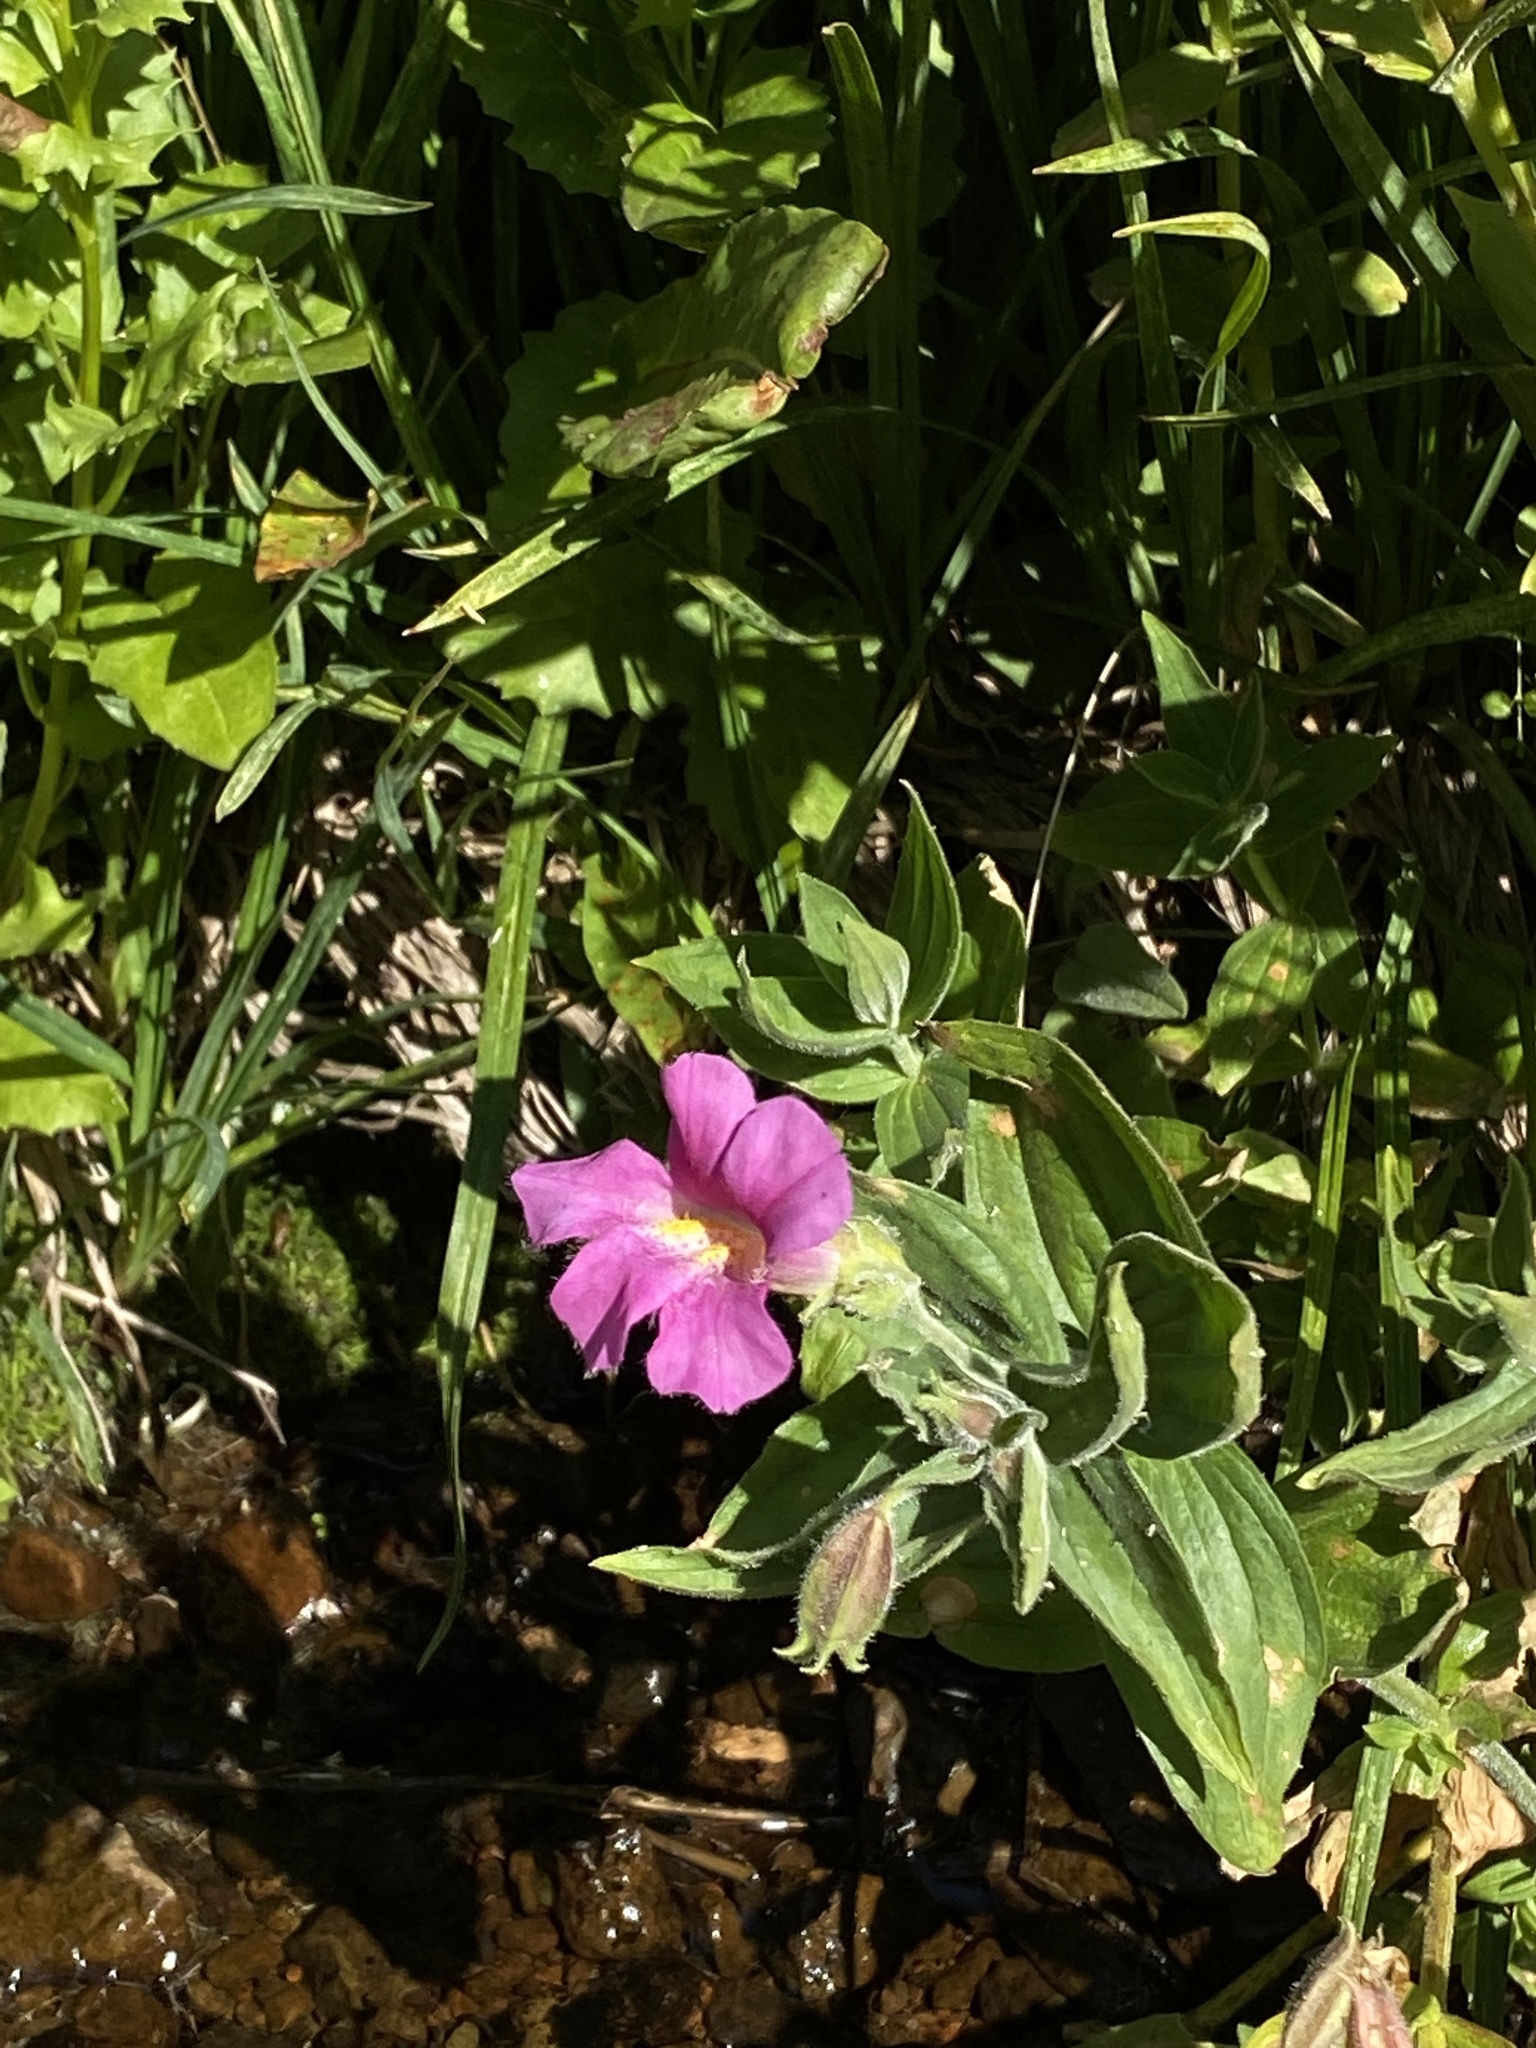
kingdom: Plantae
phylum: Tracheophyta
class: Magnoliopsida
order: Lamiales
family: Phrymaceae
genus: Erythranthe
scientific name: Erythranthe lewisii
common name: Lewis's monkey-flower
